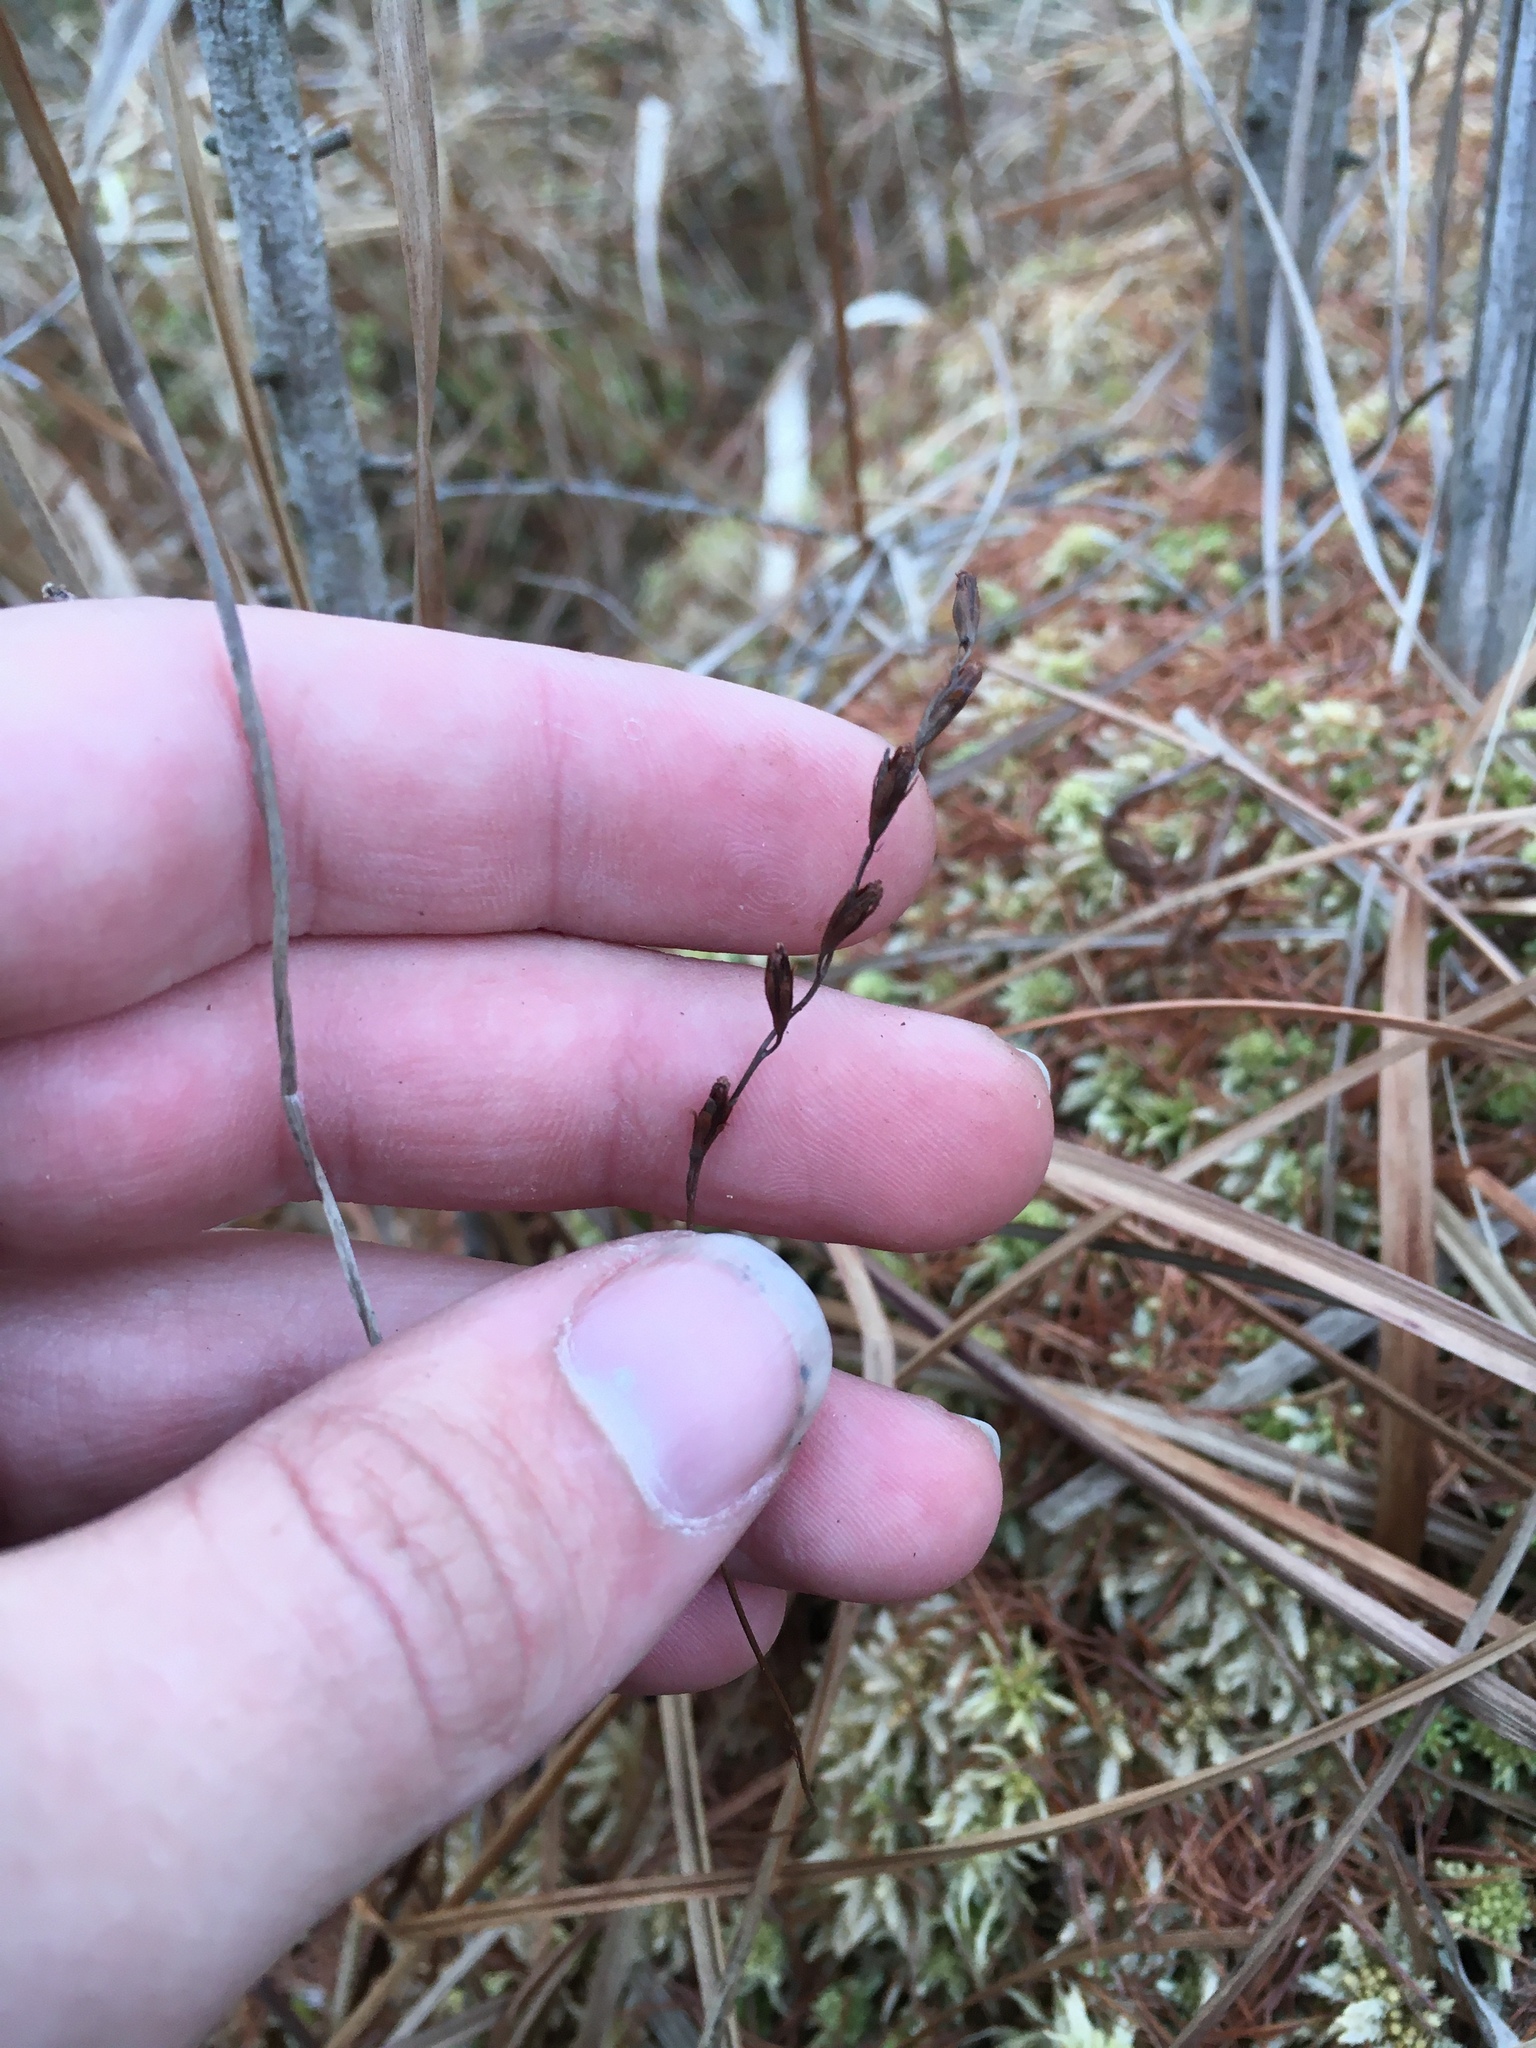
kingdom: Plantae
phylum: Tracheophyta
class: Magnoliopsida
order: Caryophyllales
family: Droseraceae
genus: Drosera
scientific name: Drosera rotundifolia
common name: Round-leaved sundew
